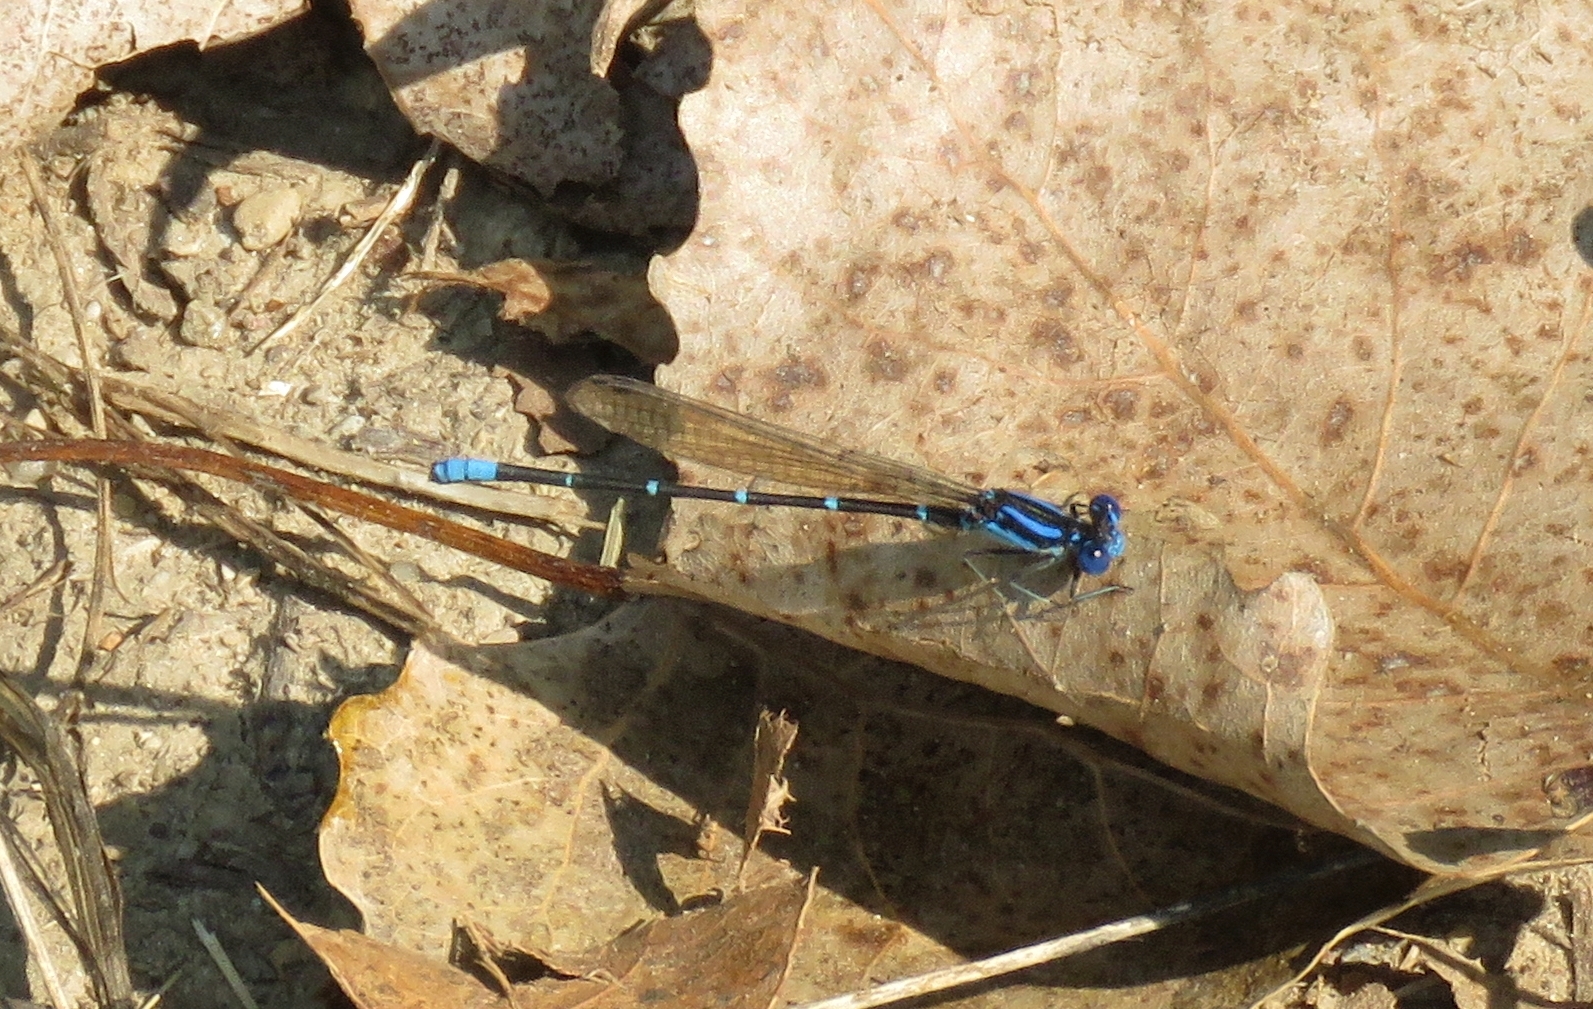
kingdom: Animalia
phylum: Arthropoda
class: Insecta
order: Odonata
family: Coenagrionidae
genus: Argia
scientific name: Argia sedula
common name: Blue-ringed dancer
